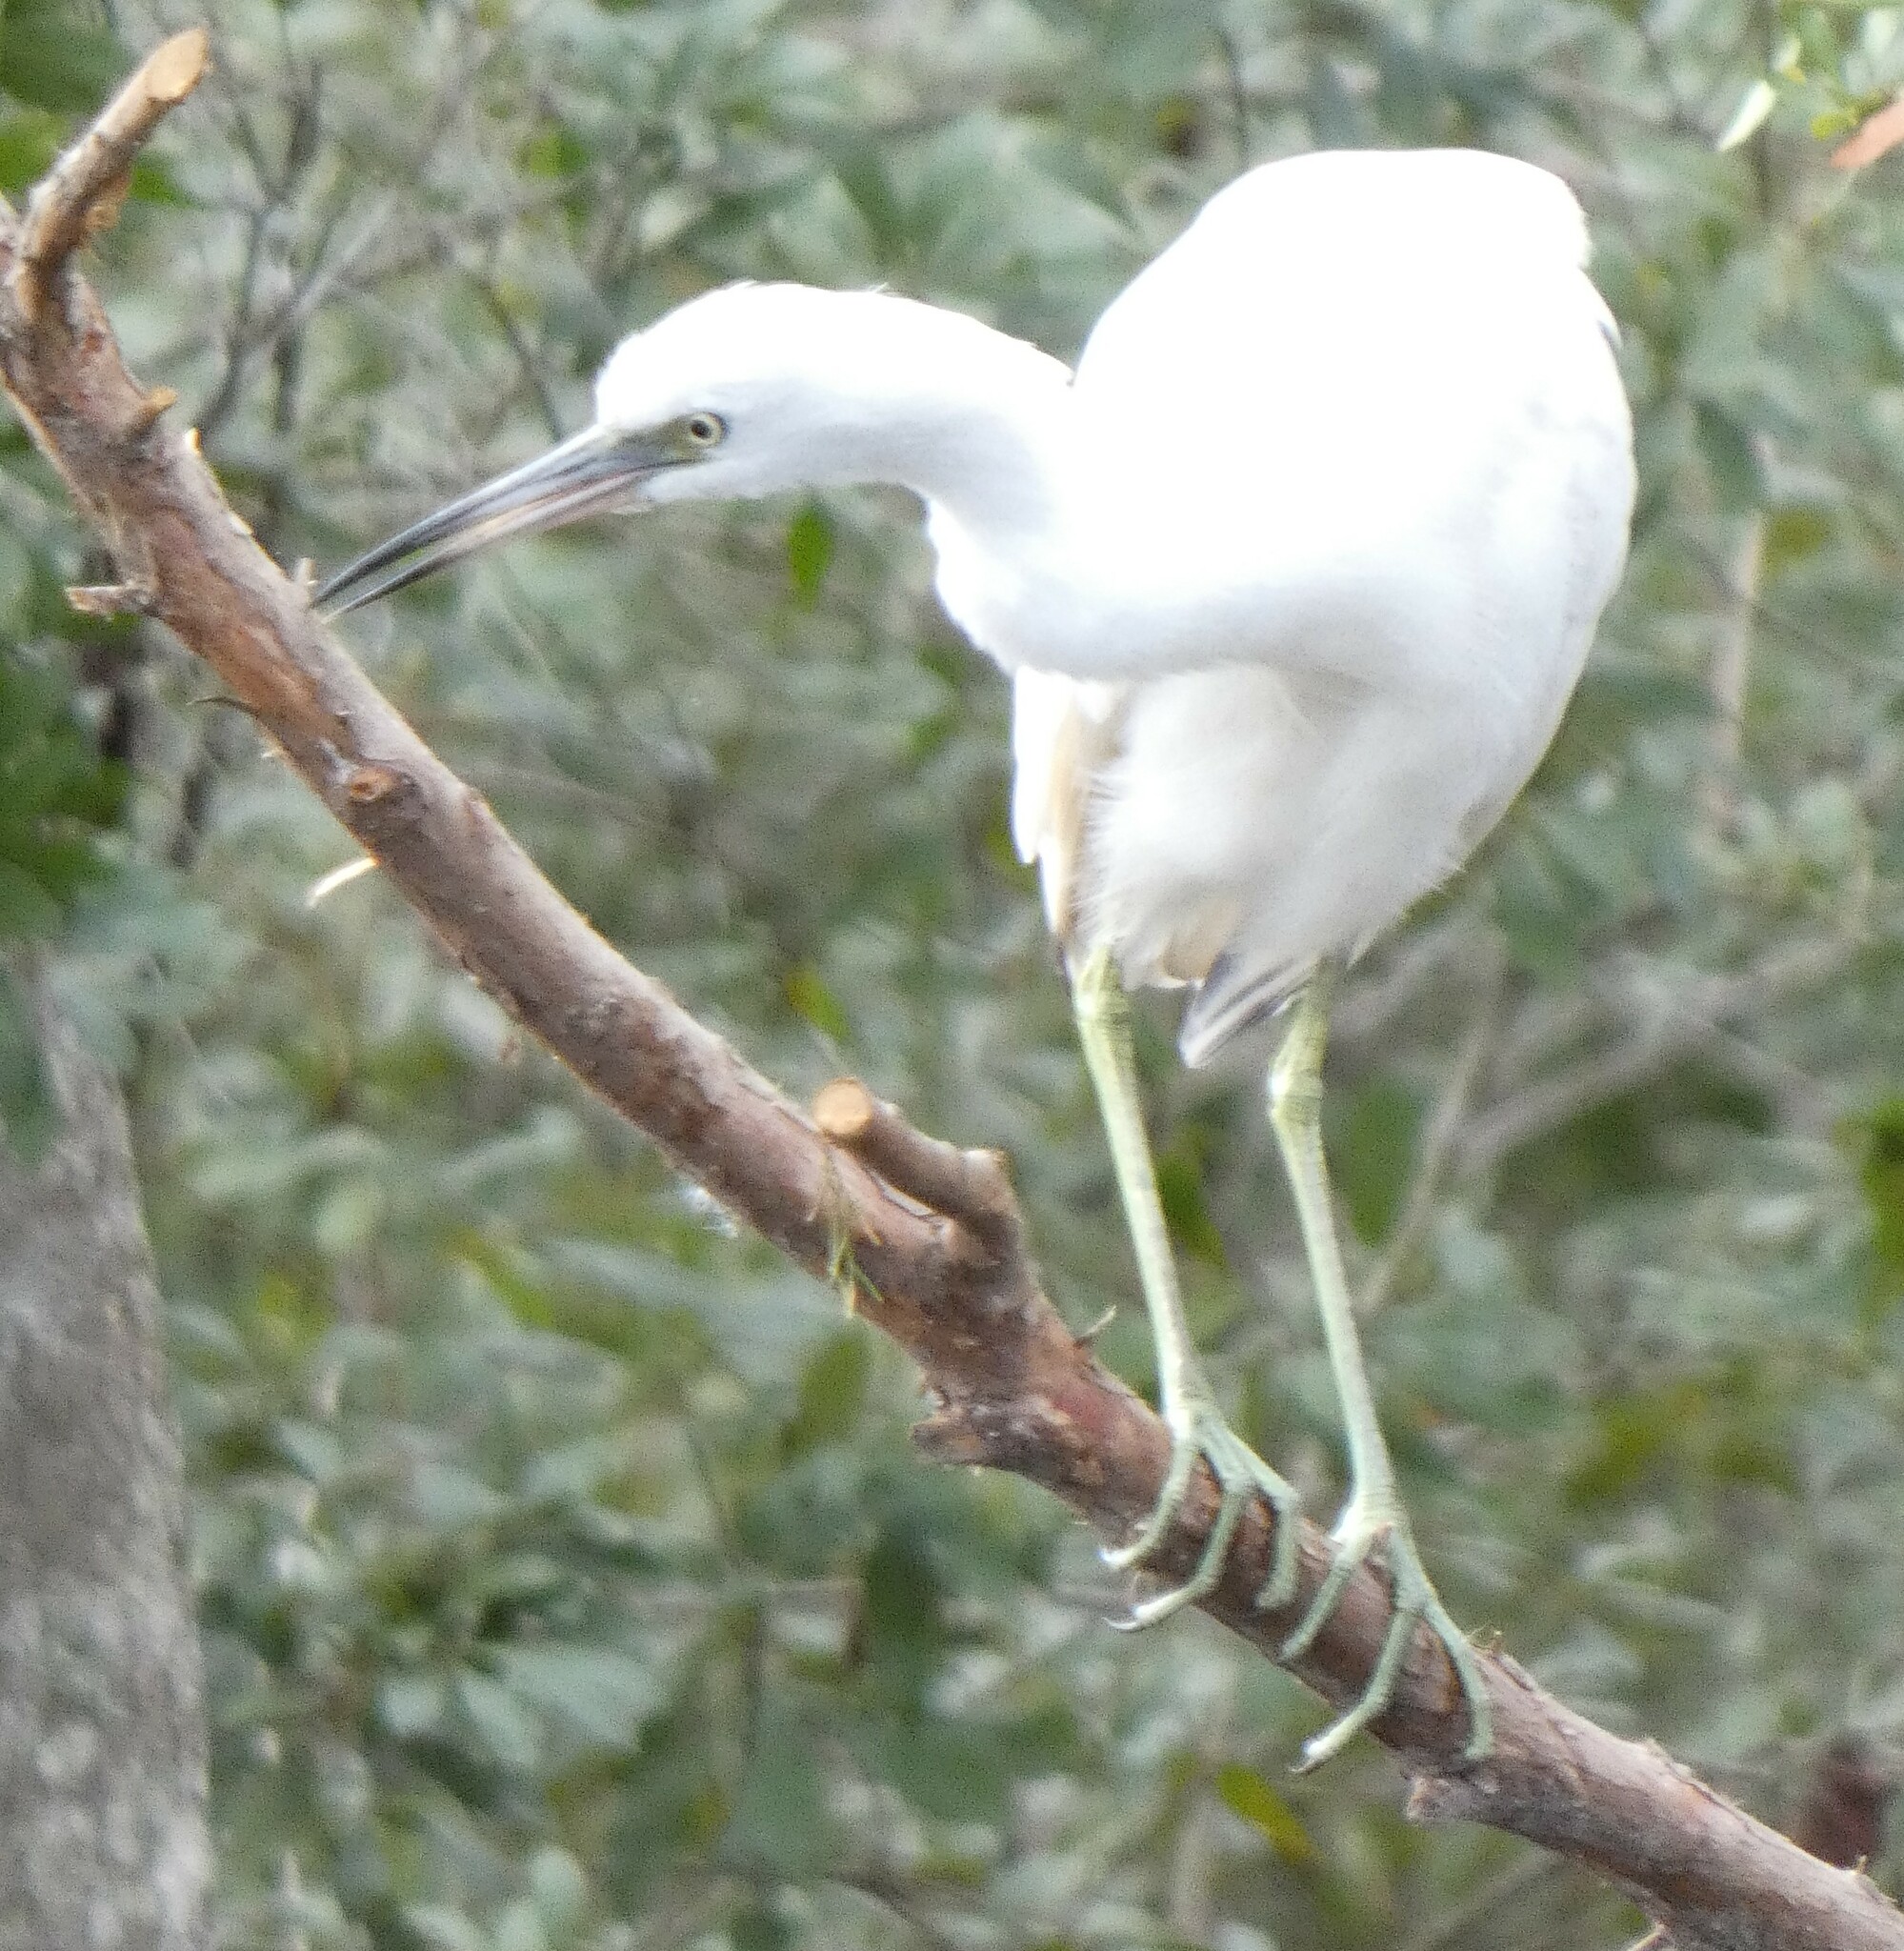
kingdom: Animalia
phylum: Chordata
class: Aves
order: Pelecaniformes
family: Ardeidae
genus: Egretta
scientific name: Egretta caerulea
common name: Little blue heron
